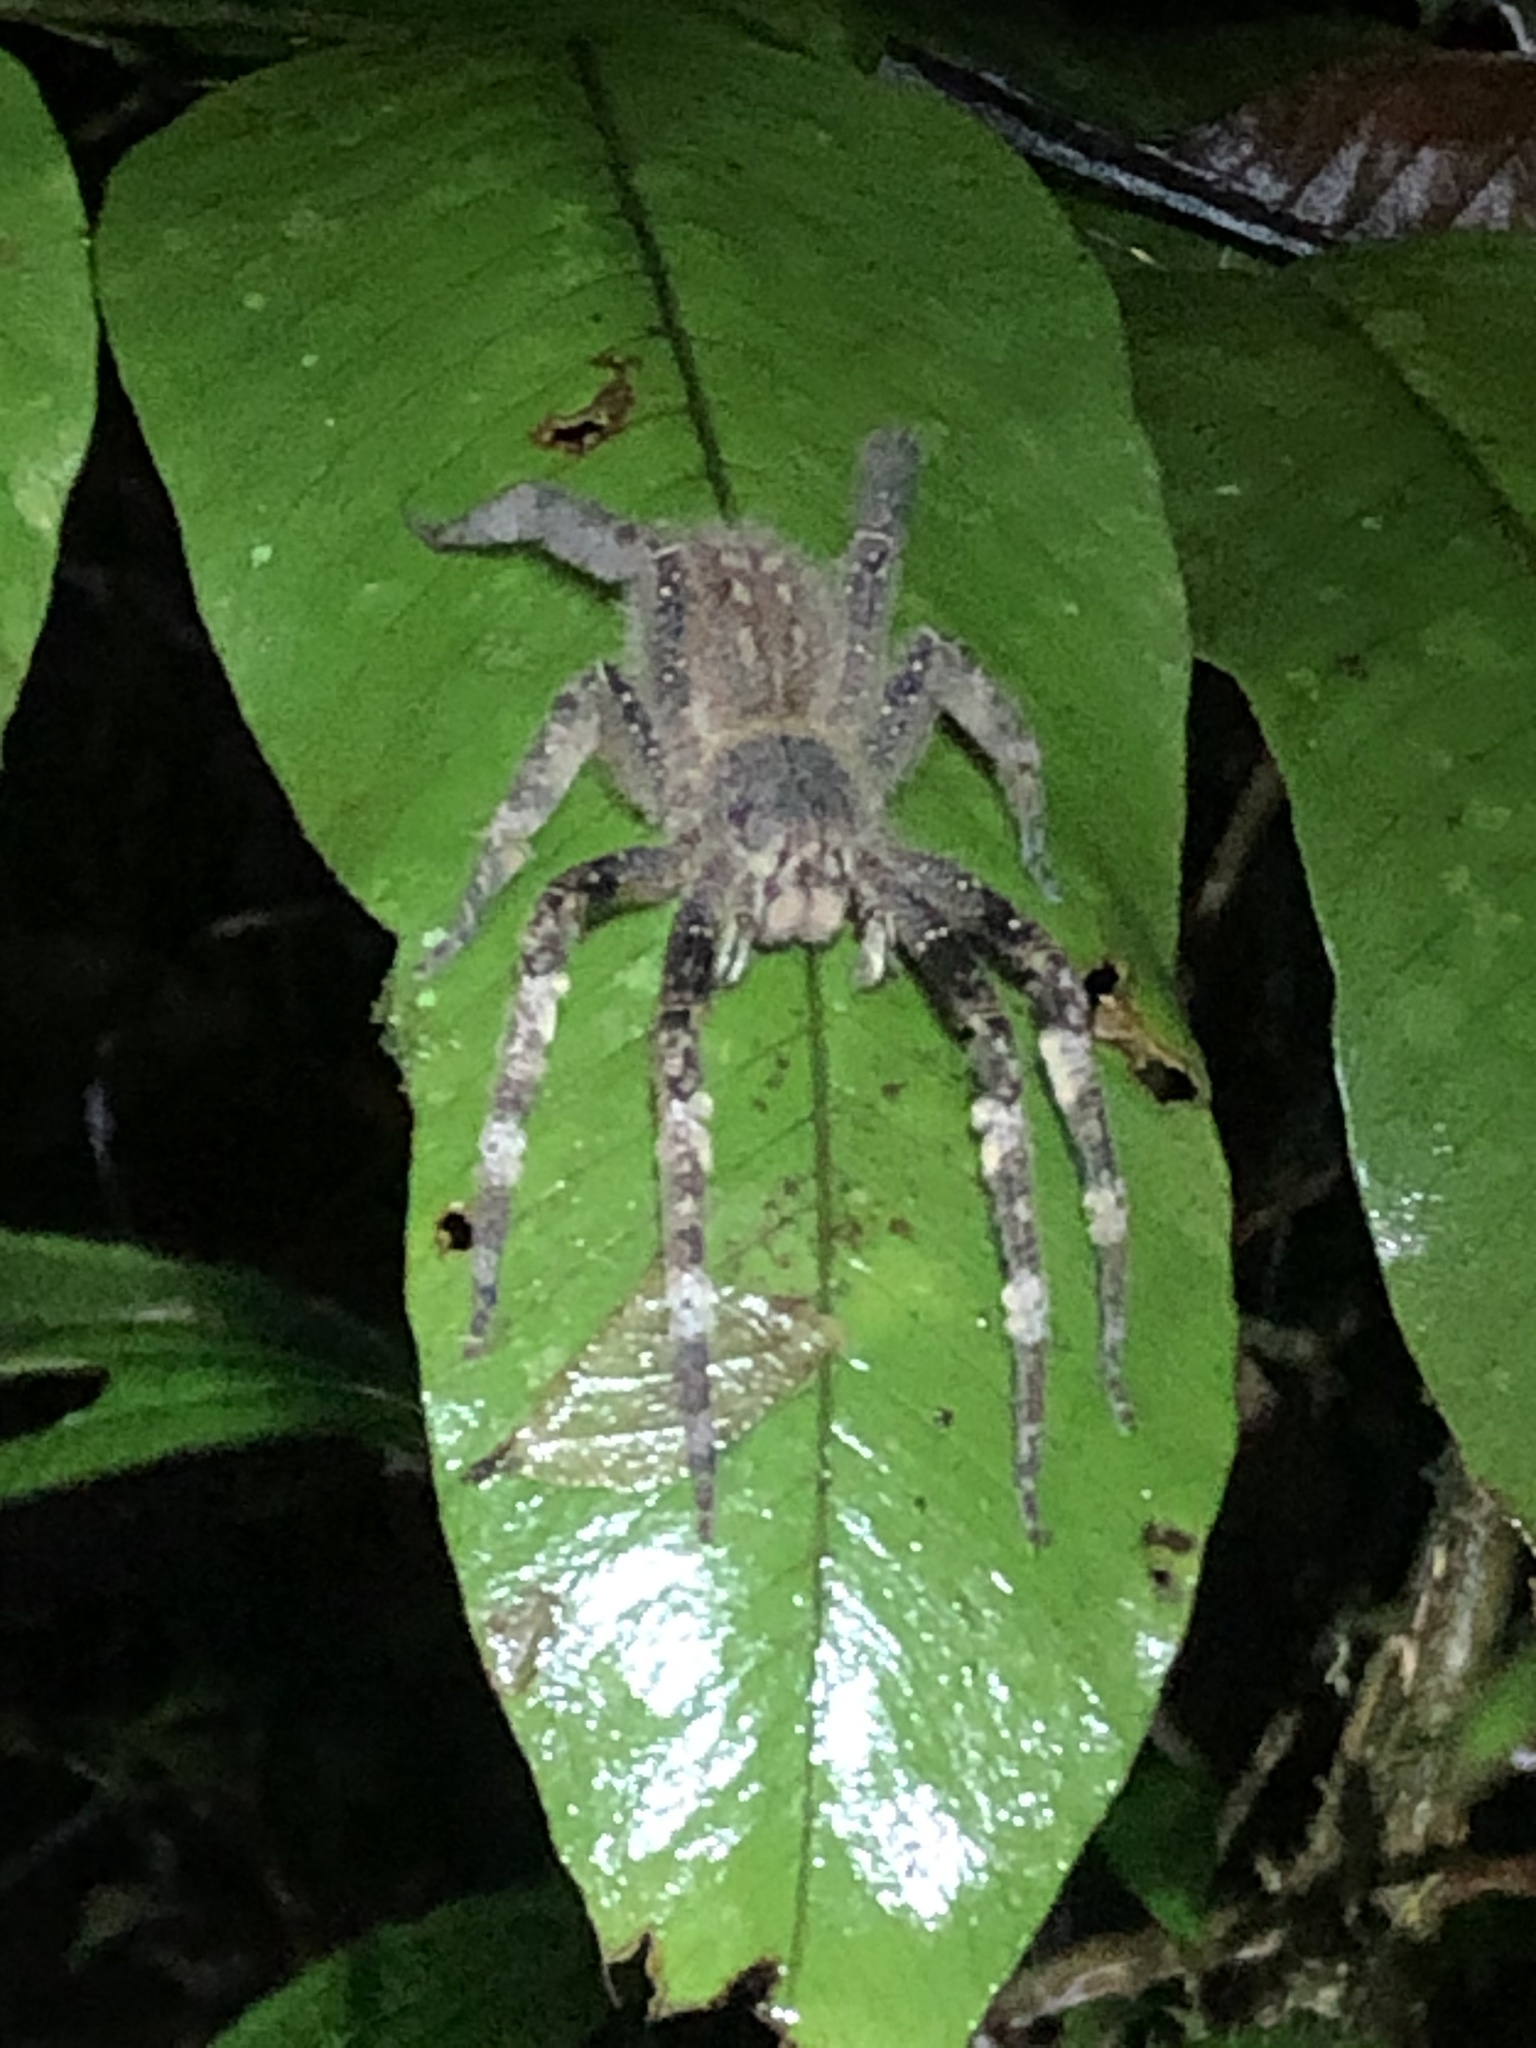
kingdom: Animalia
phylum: Arthropoda
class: Arachnida
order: Araneae
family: Ctenidae
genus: Phoneutria
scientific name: Phoneutria fera
